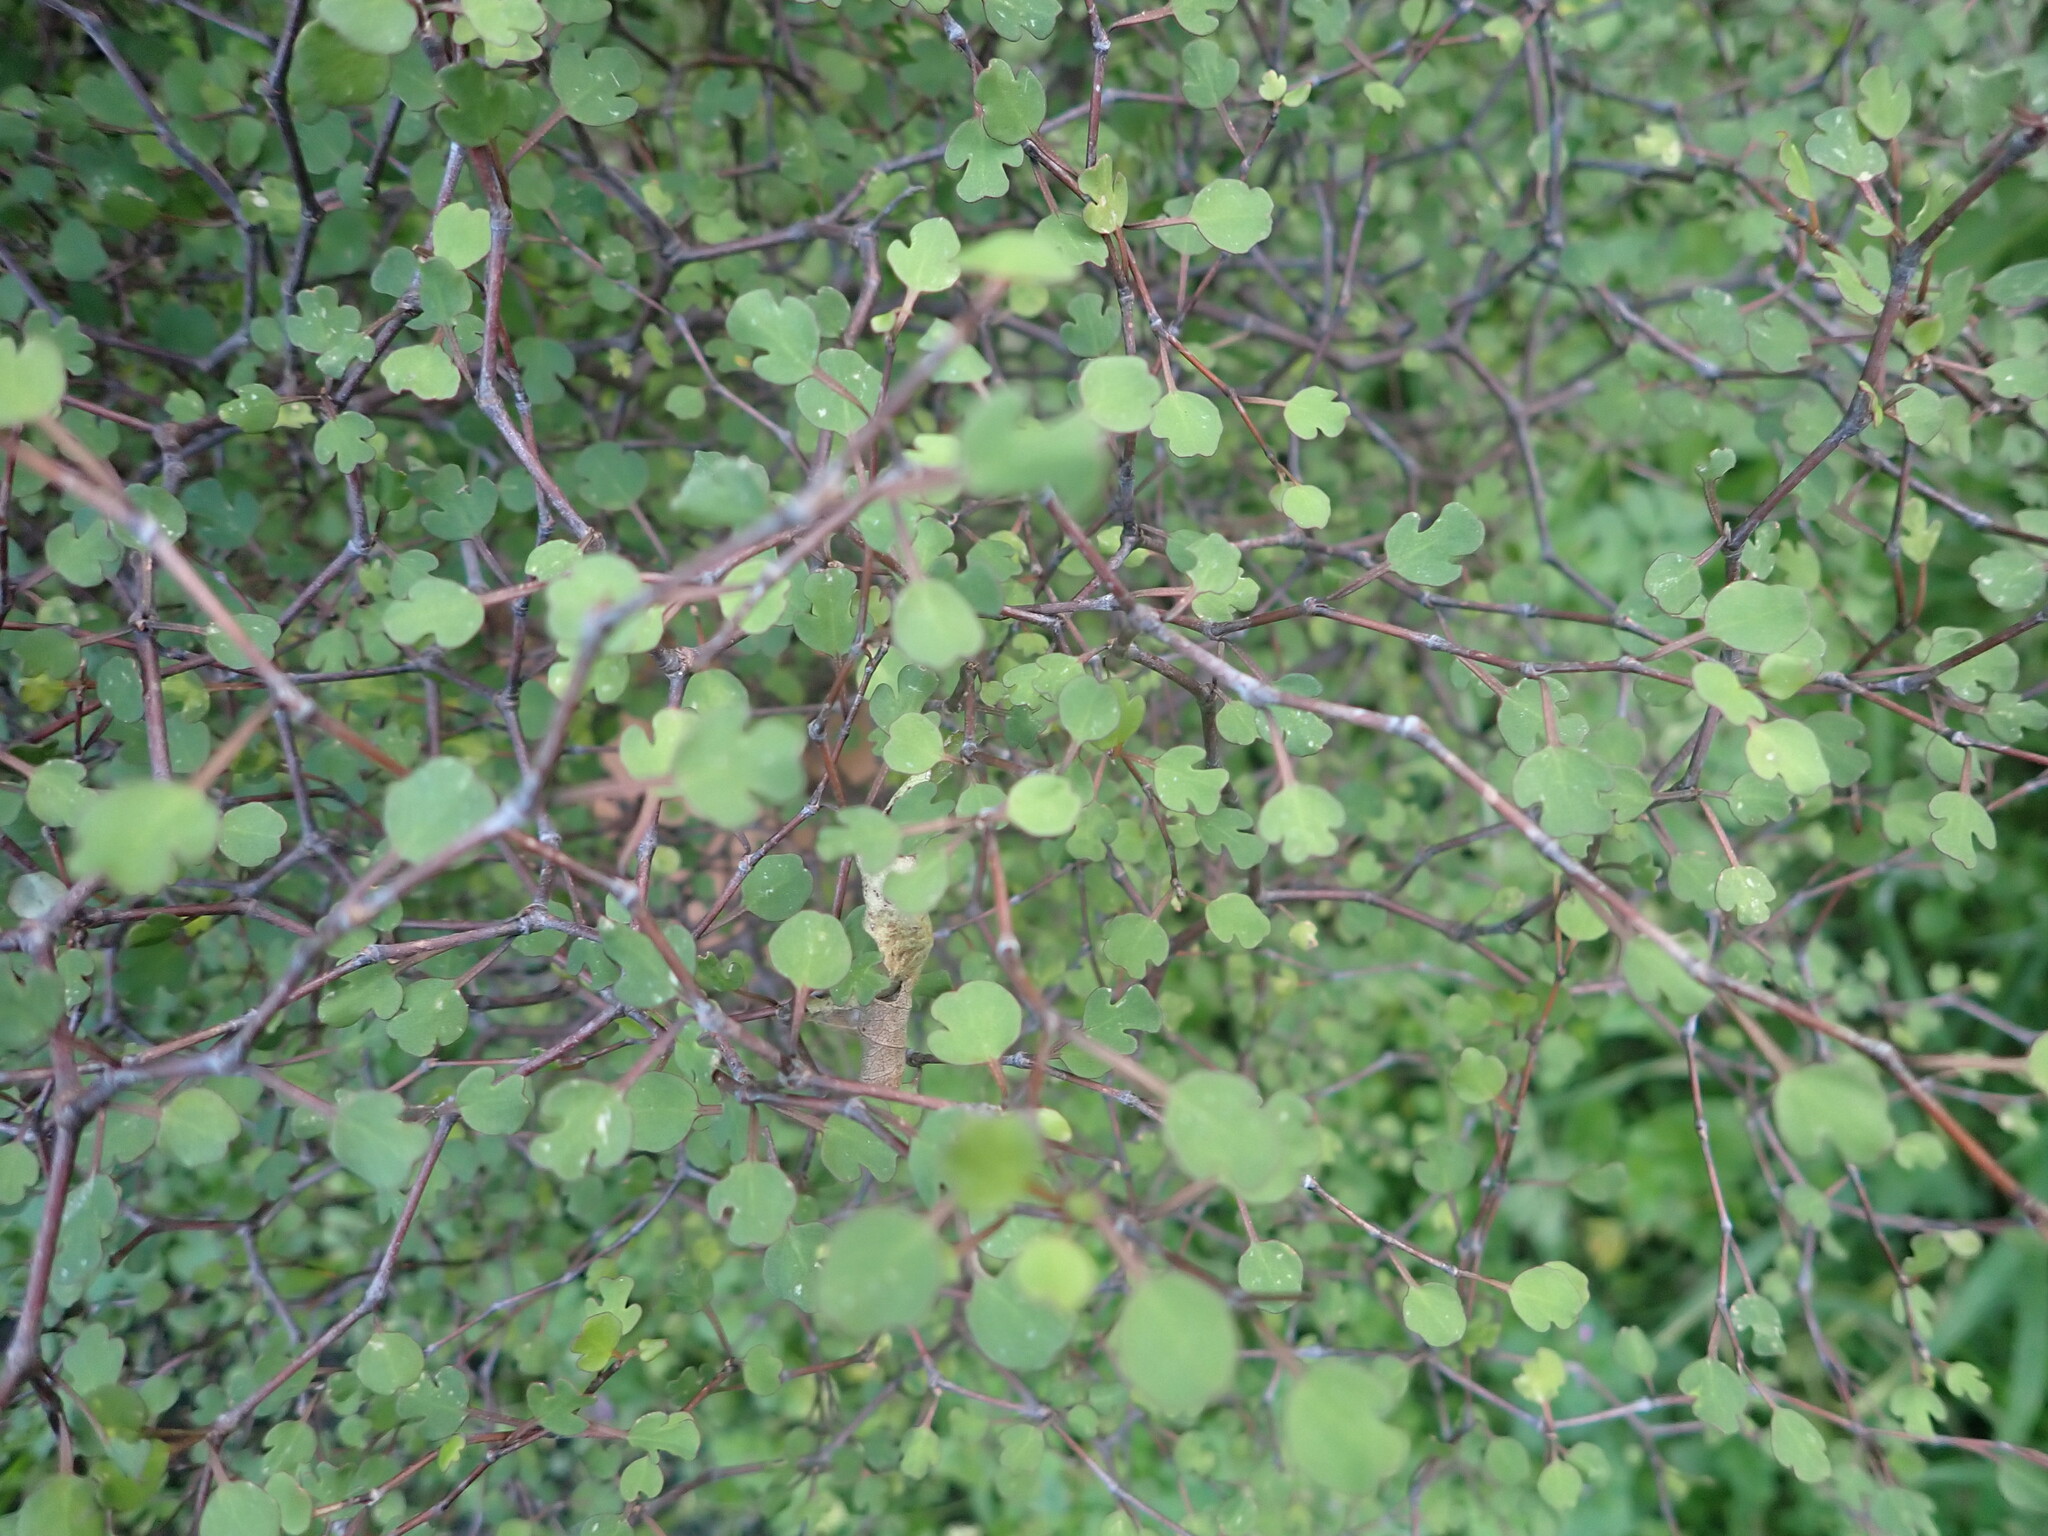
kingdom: Plantae
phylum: Tracheophyta
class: Magnoliopsida
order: Caryophyllales
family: Polygonaceae
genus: Muehlenbeckia
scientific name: Muehlenbeckia astonii
